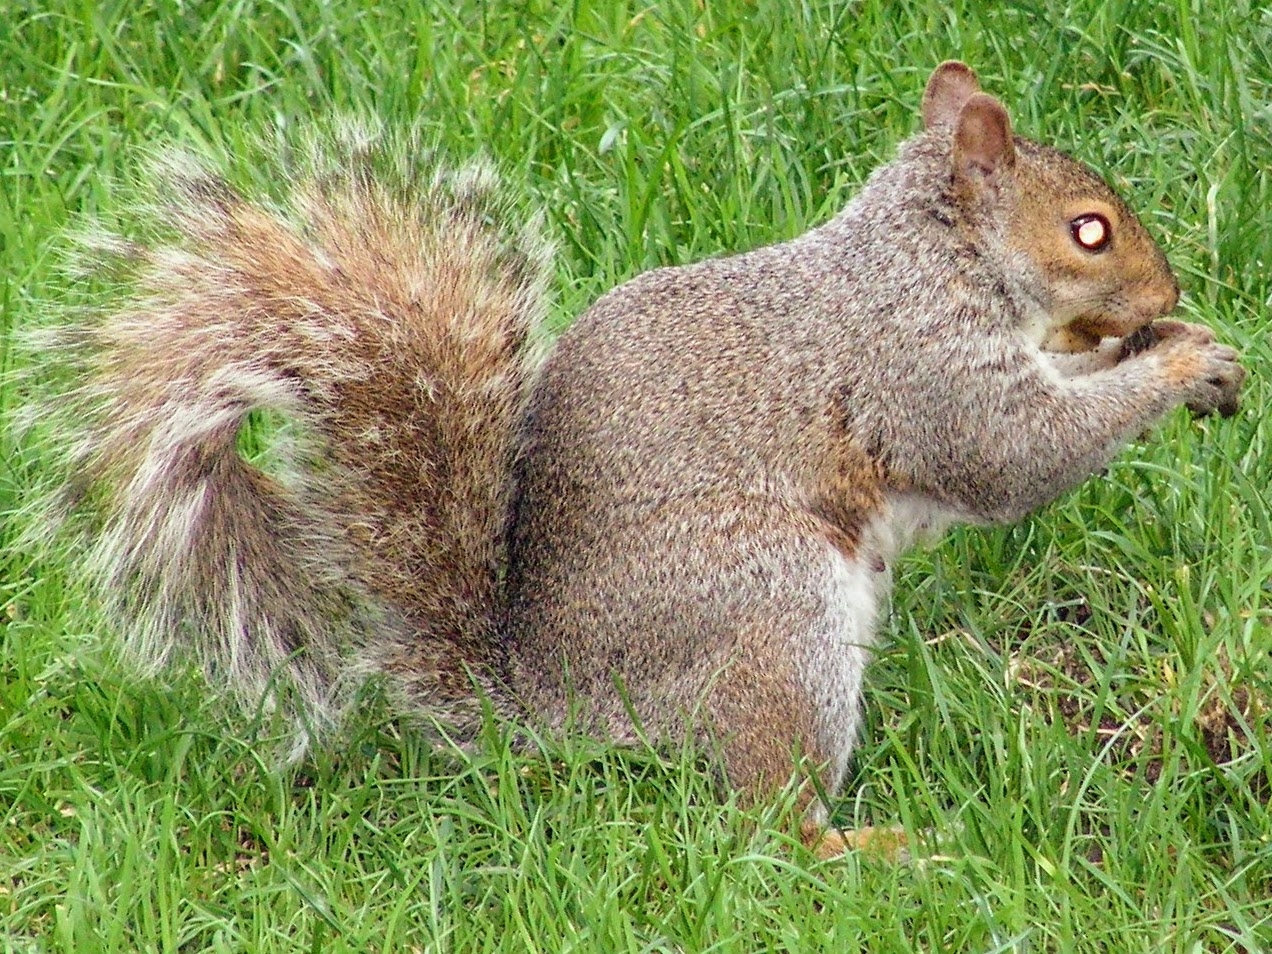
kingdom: Animalia
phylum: Chordata
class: Mammalia
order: Rodentia
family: Sciuridae
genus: Sciurus
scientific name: Sciurus carolinensis
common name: Eastern gray squirrel
